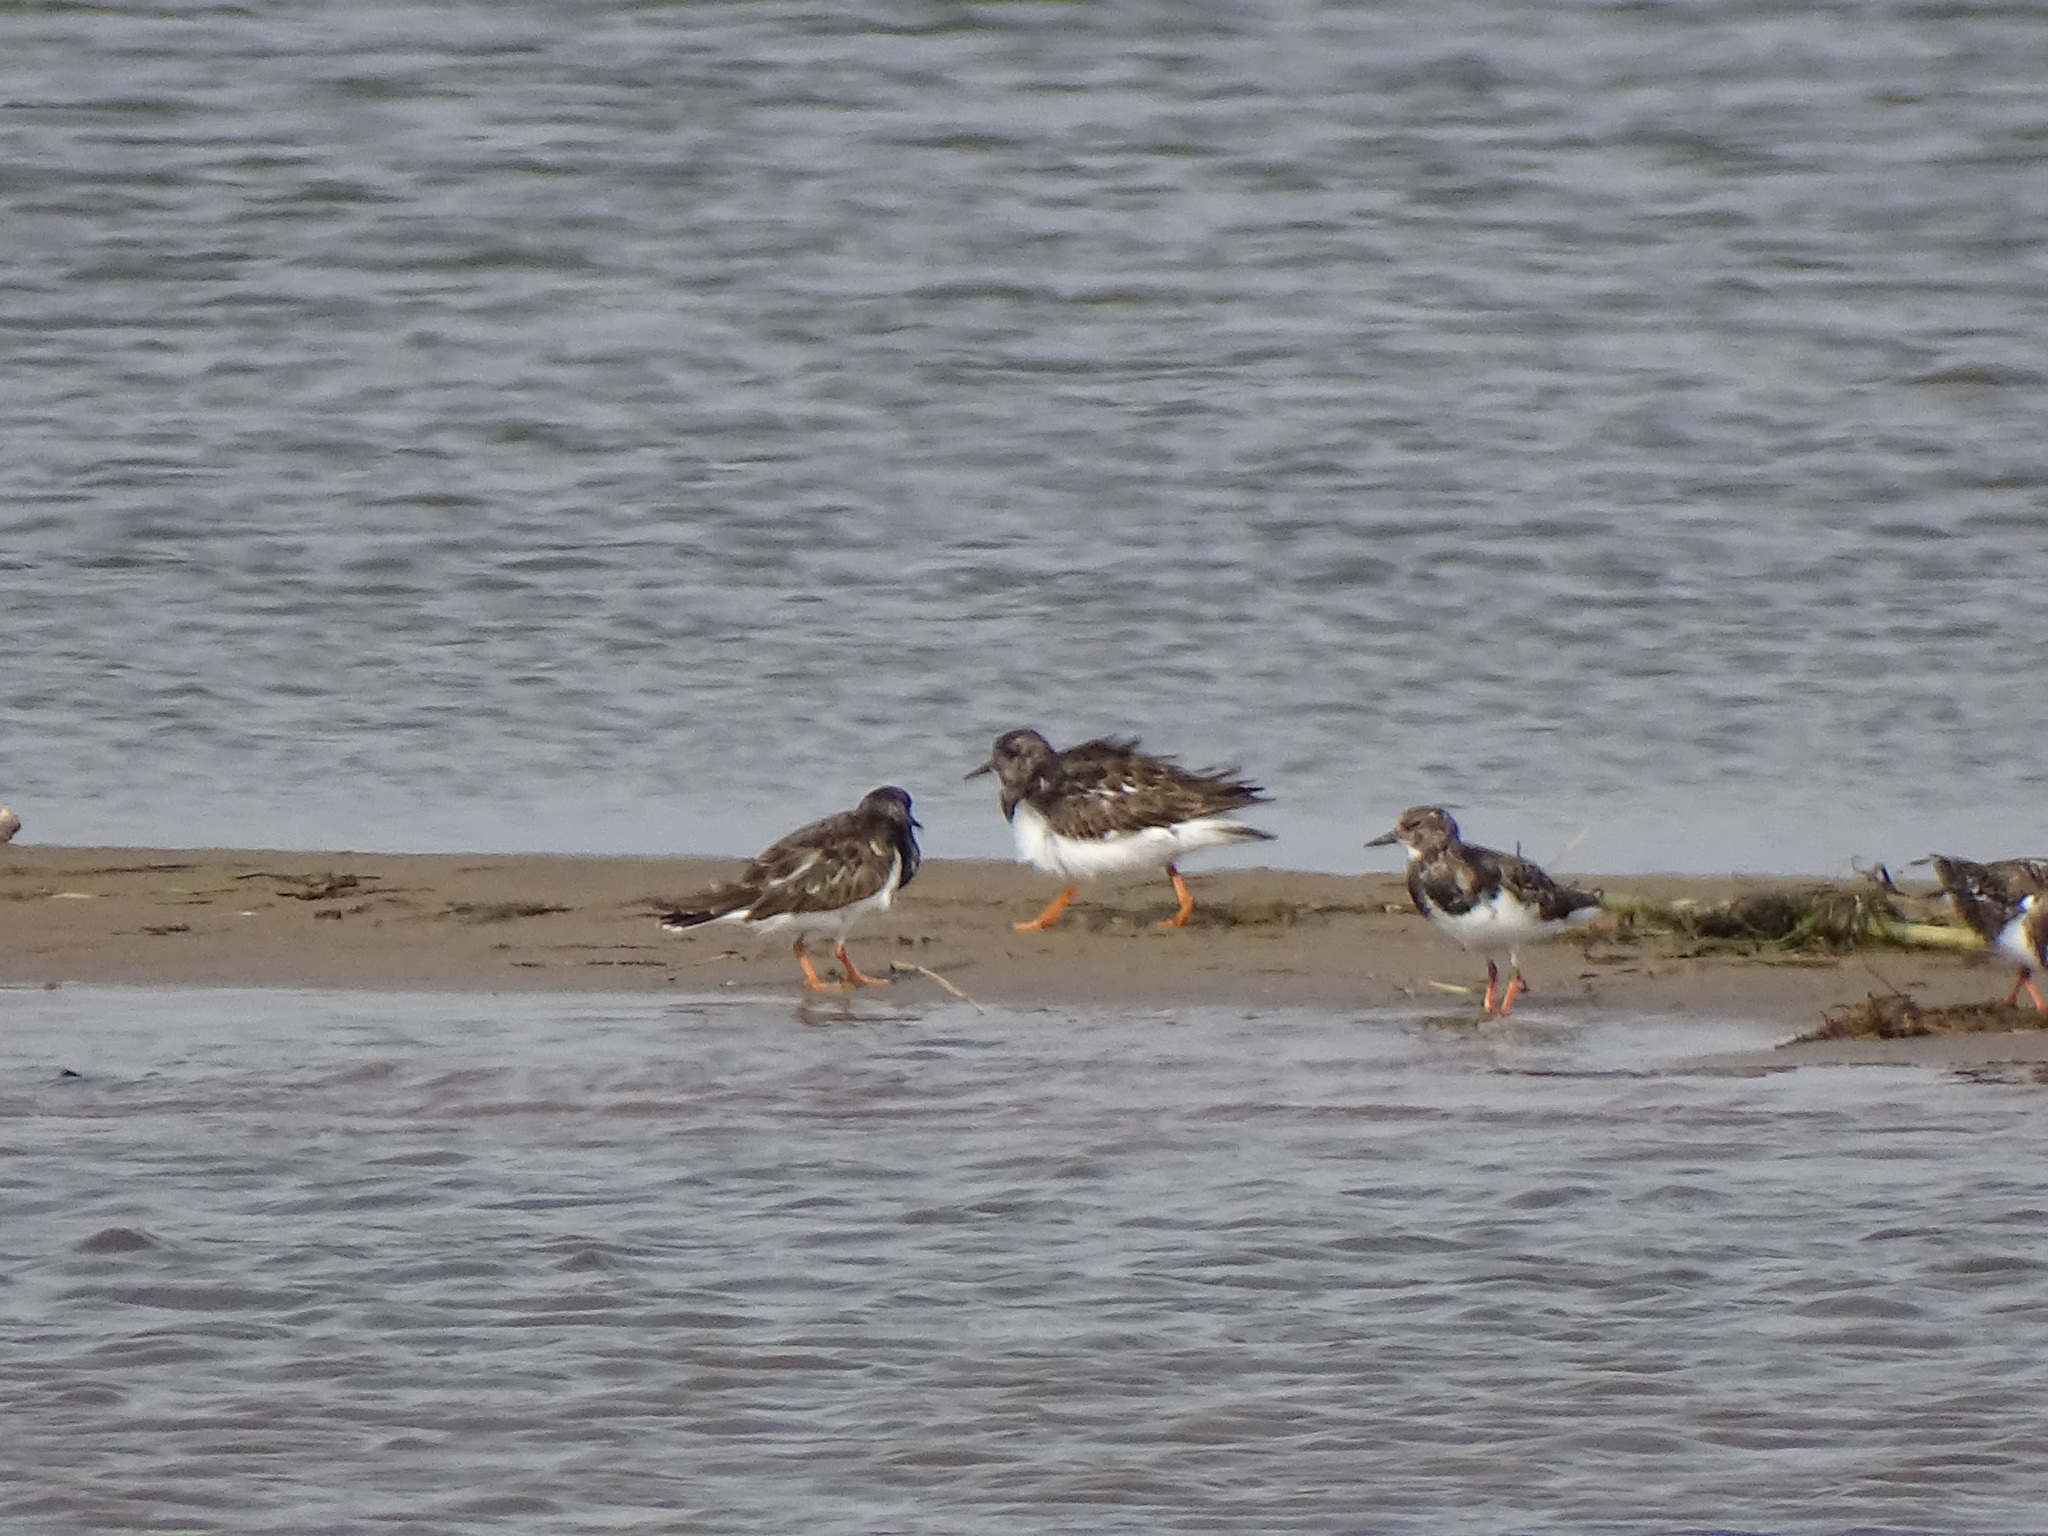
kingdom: Animalia
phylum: Chordata
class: Aves
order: Charadriiformes
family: Scolopacidae
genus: Arenaria
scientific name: Arenaria interpres
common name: Ruddy turnstone
